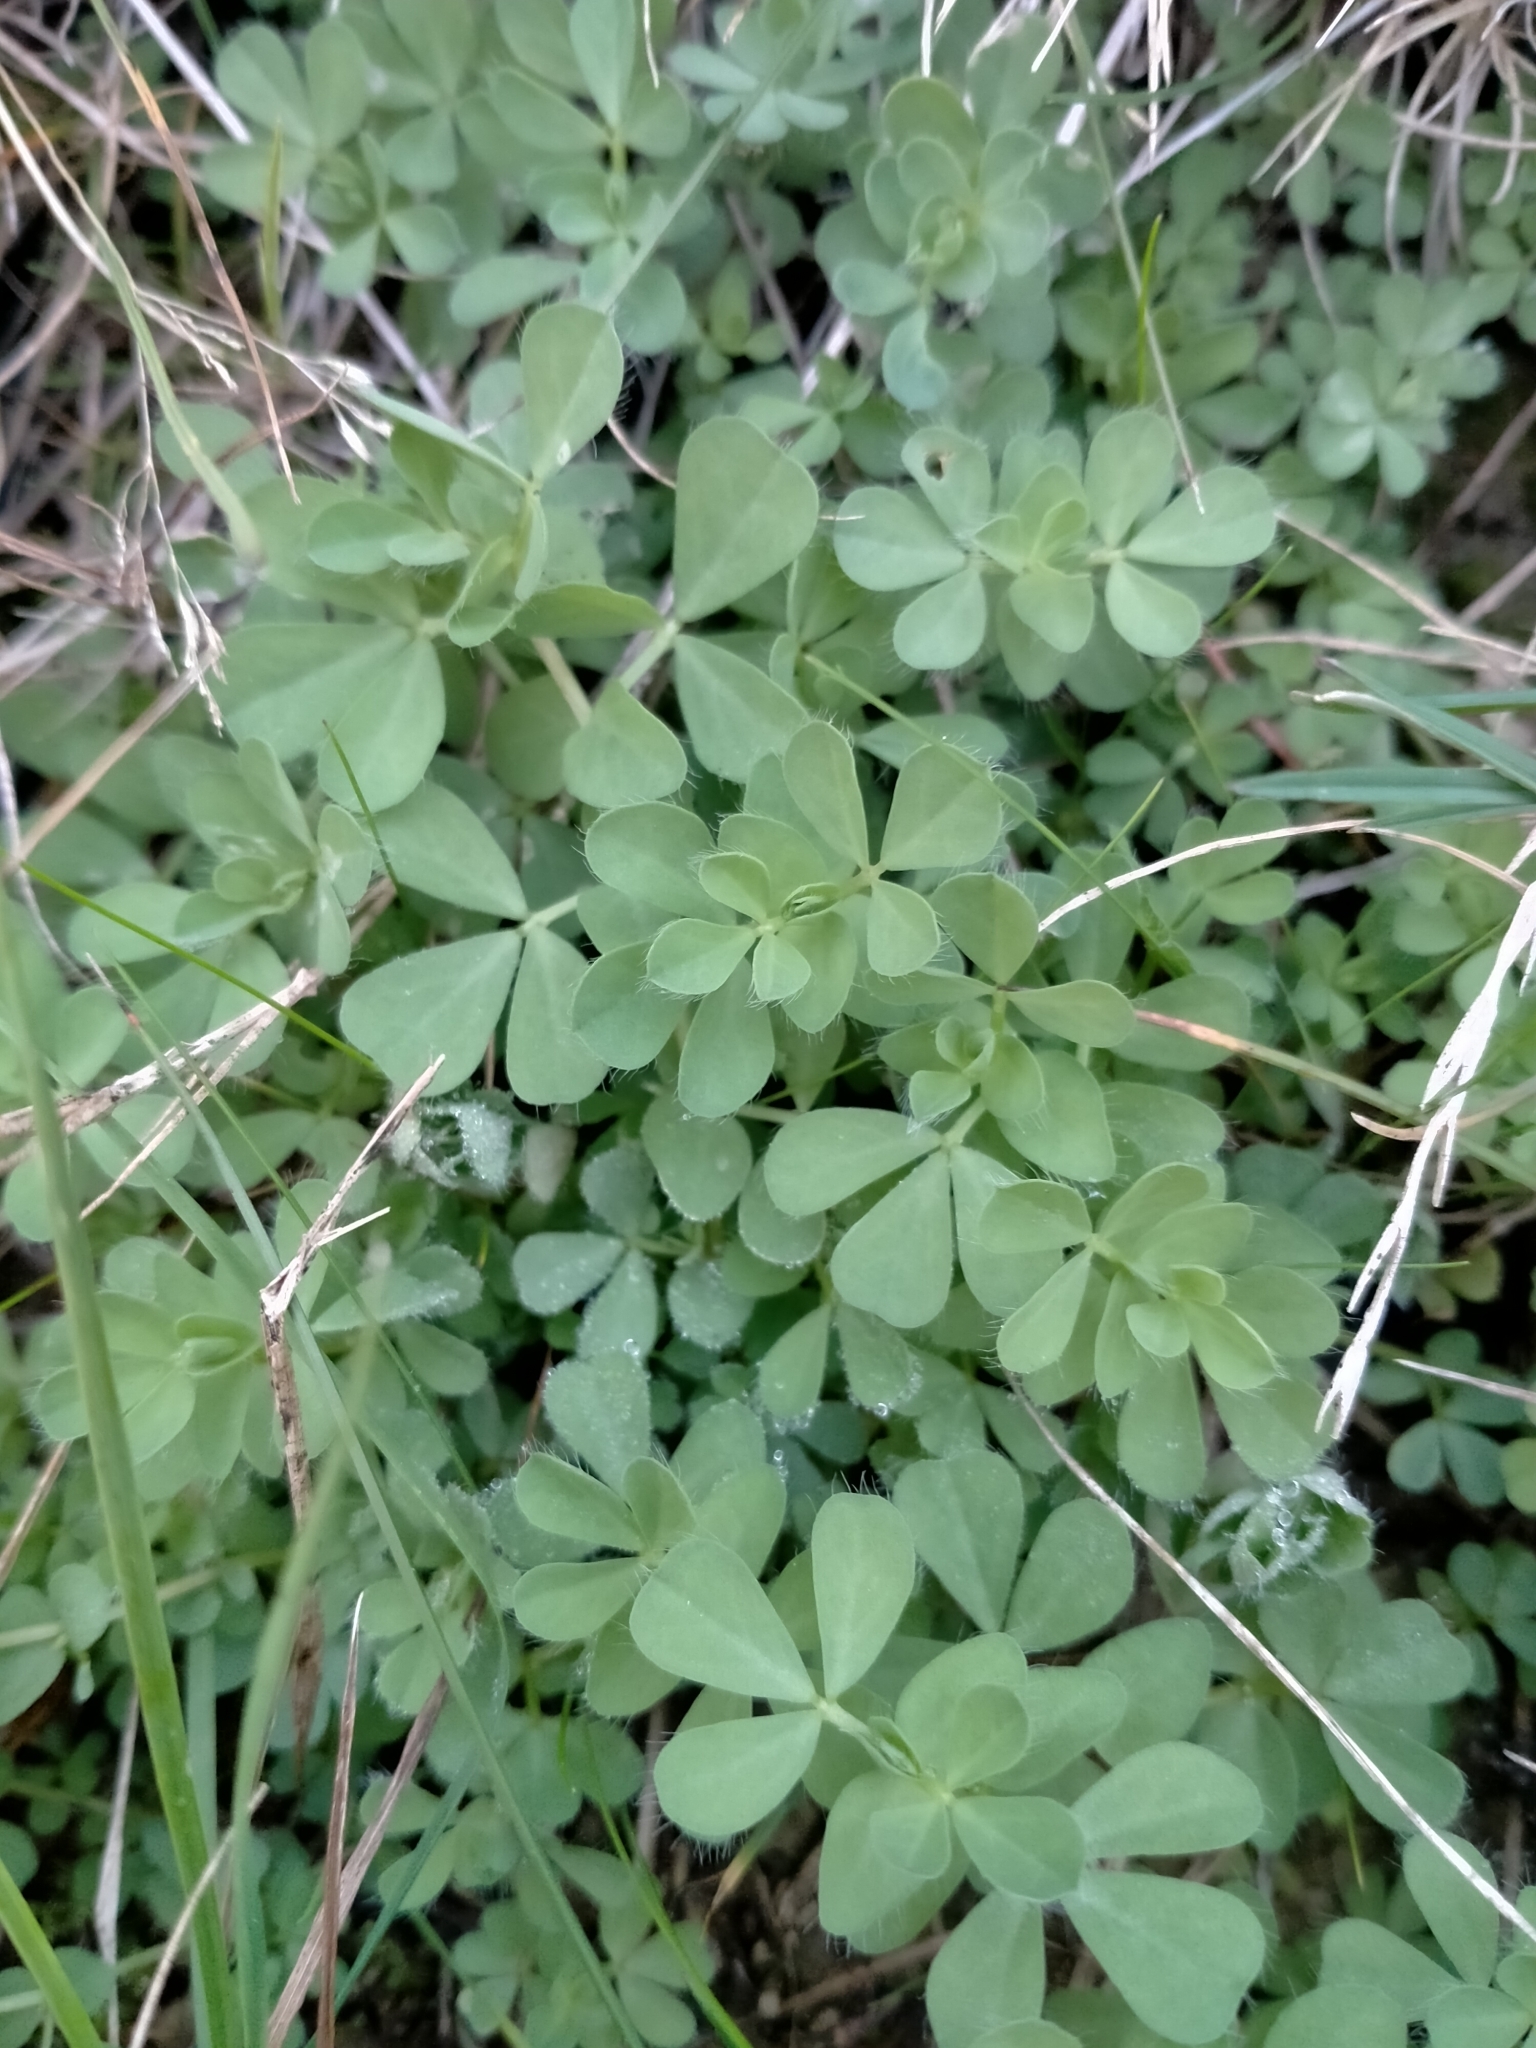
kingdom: Plantae
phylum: Tracheophyta
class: Magnoliopsida
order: Fabales
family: Fabaceae
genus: Lotus
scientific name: Lotus pedunculatus
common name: Greater birdsfoot-trefoil
